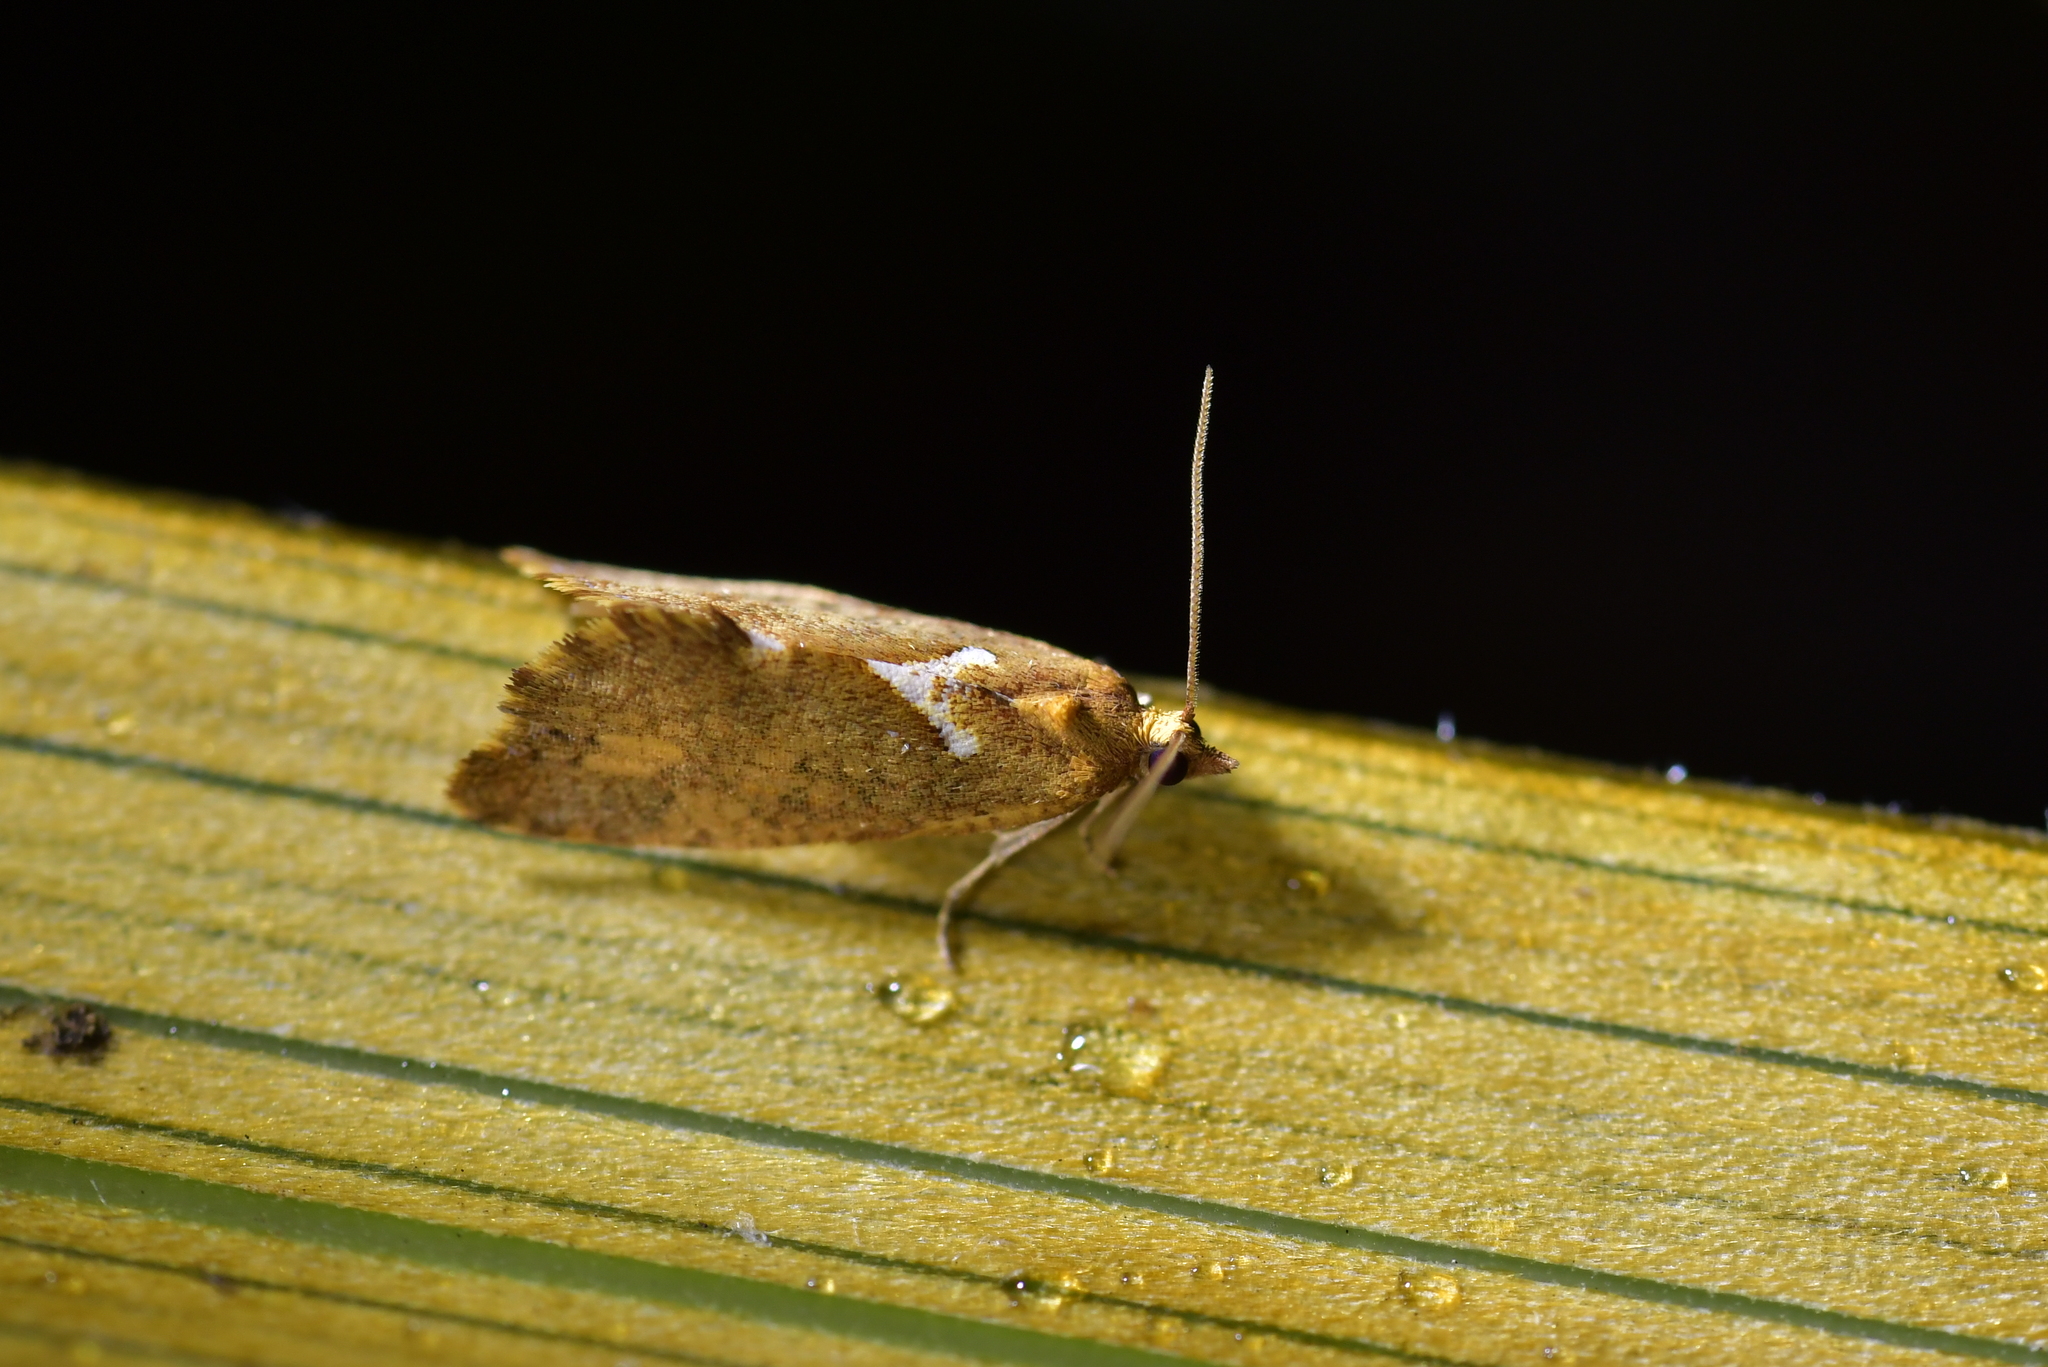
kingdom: Animalia
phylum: Arthropoda
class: Insecta
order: Lepidoptera
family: Tortricidae
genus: Pyrgotis
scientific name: Pyrgotis pyramidias
